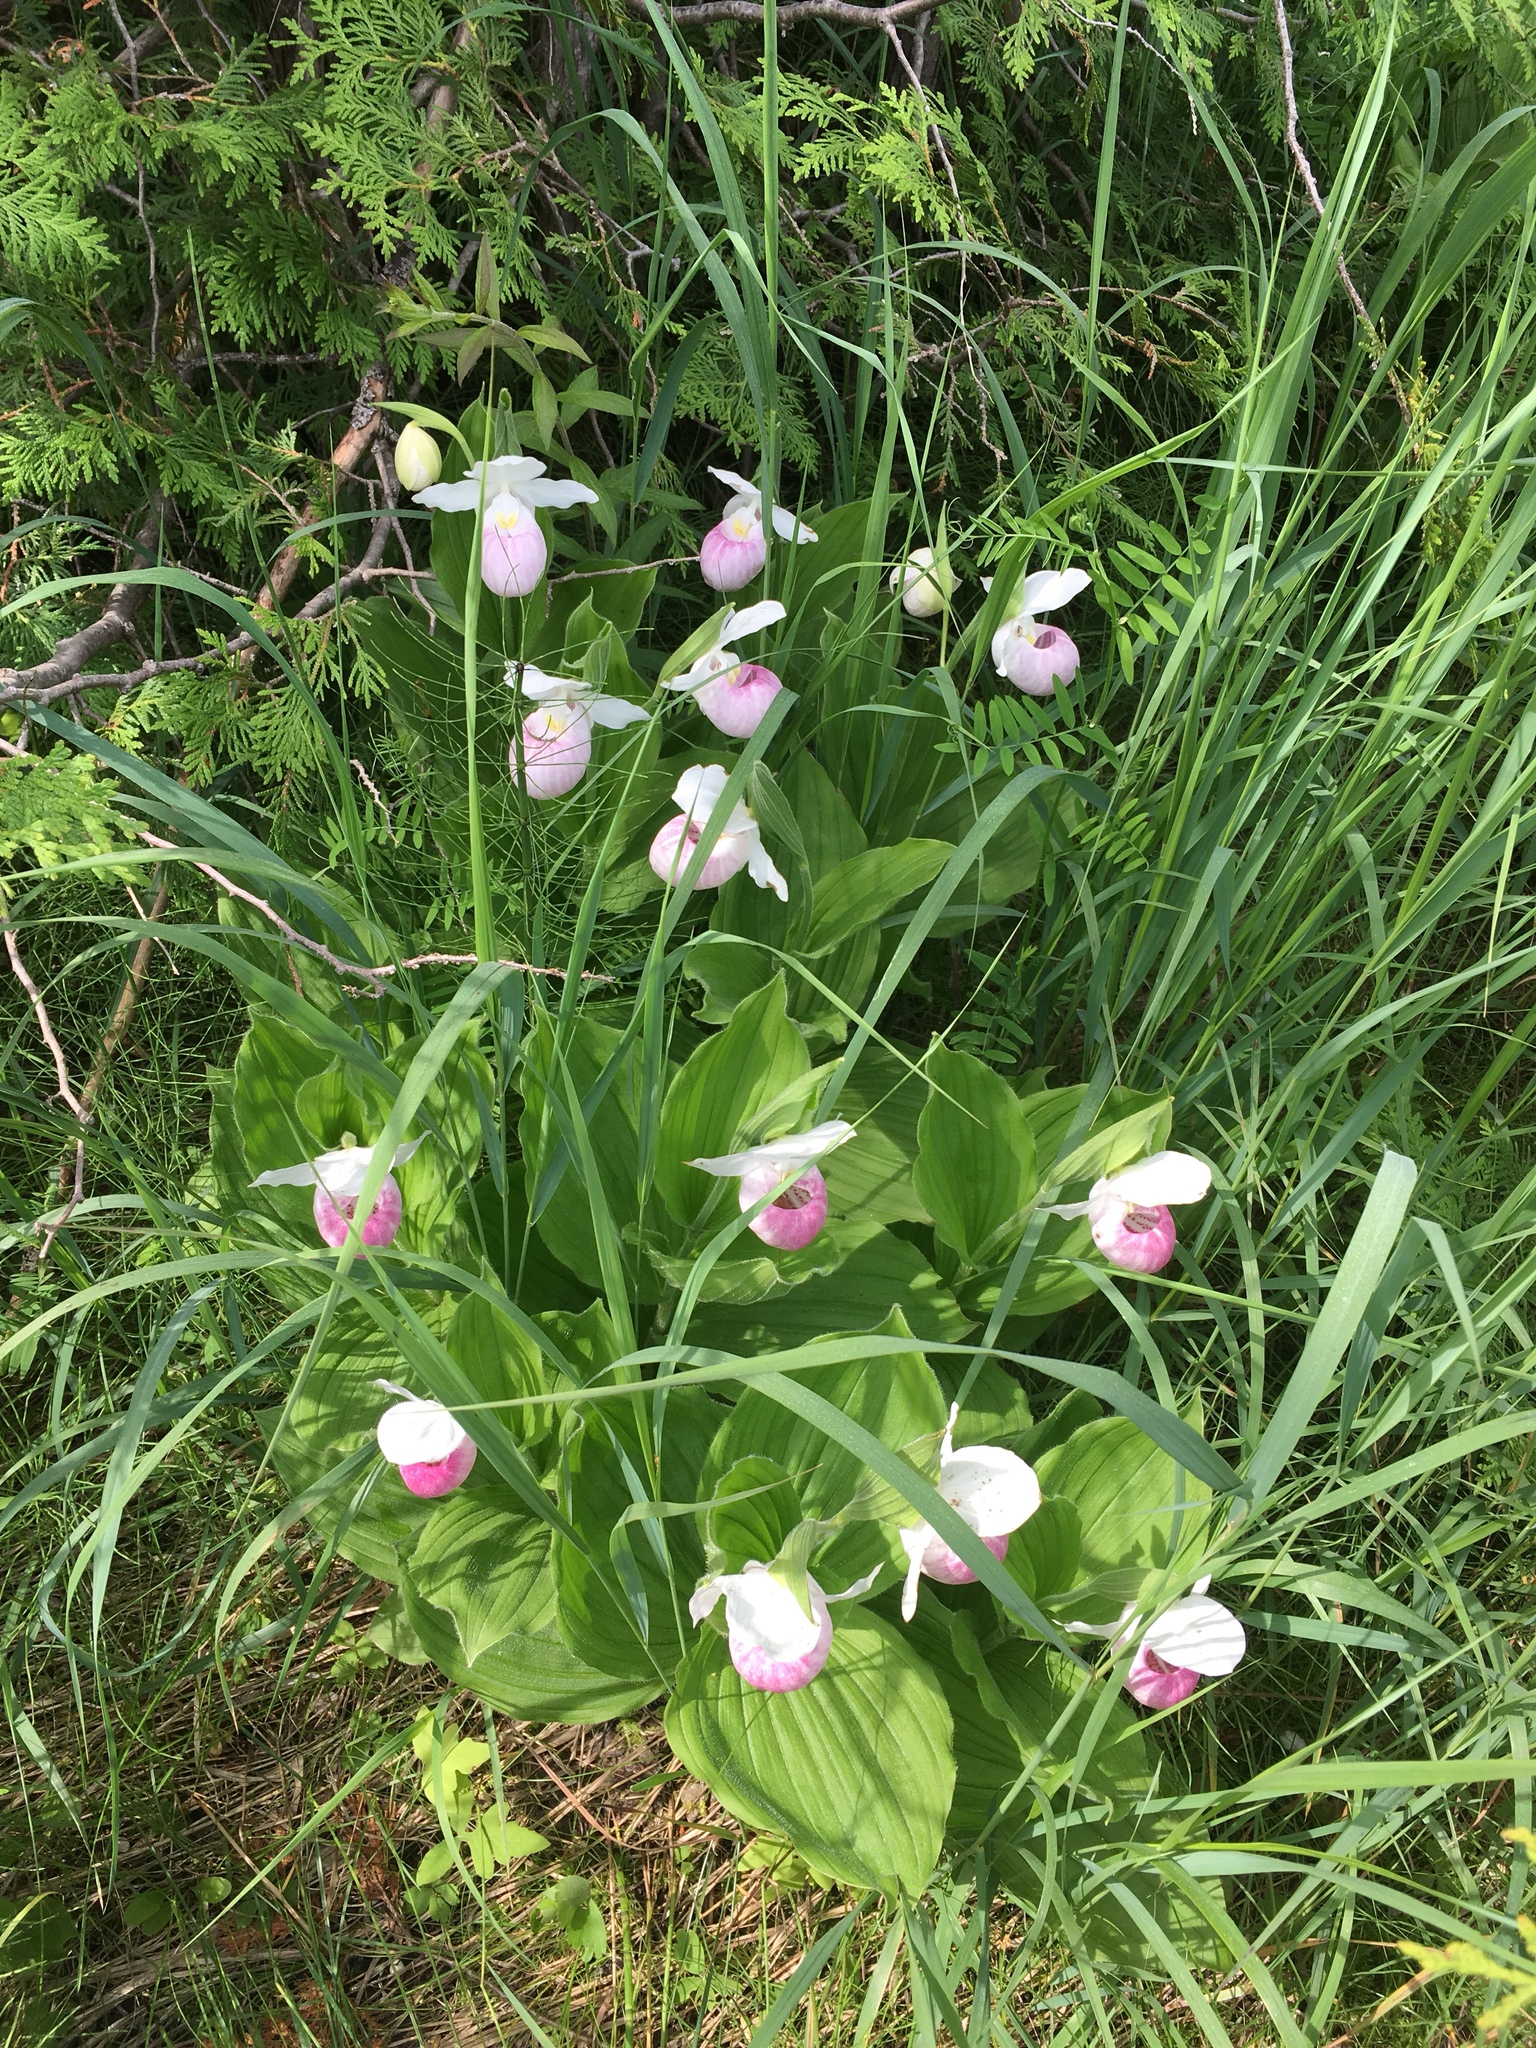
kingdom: Plantae
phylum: Tracheophyta
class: Liliopsida
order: Asparagales
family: Orchidaceae
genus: Cypripedium
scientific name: Cypripedium reginae
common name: Queen lady's-slipper
